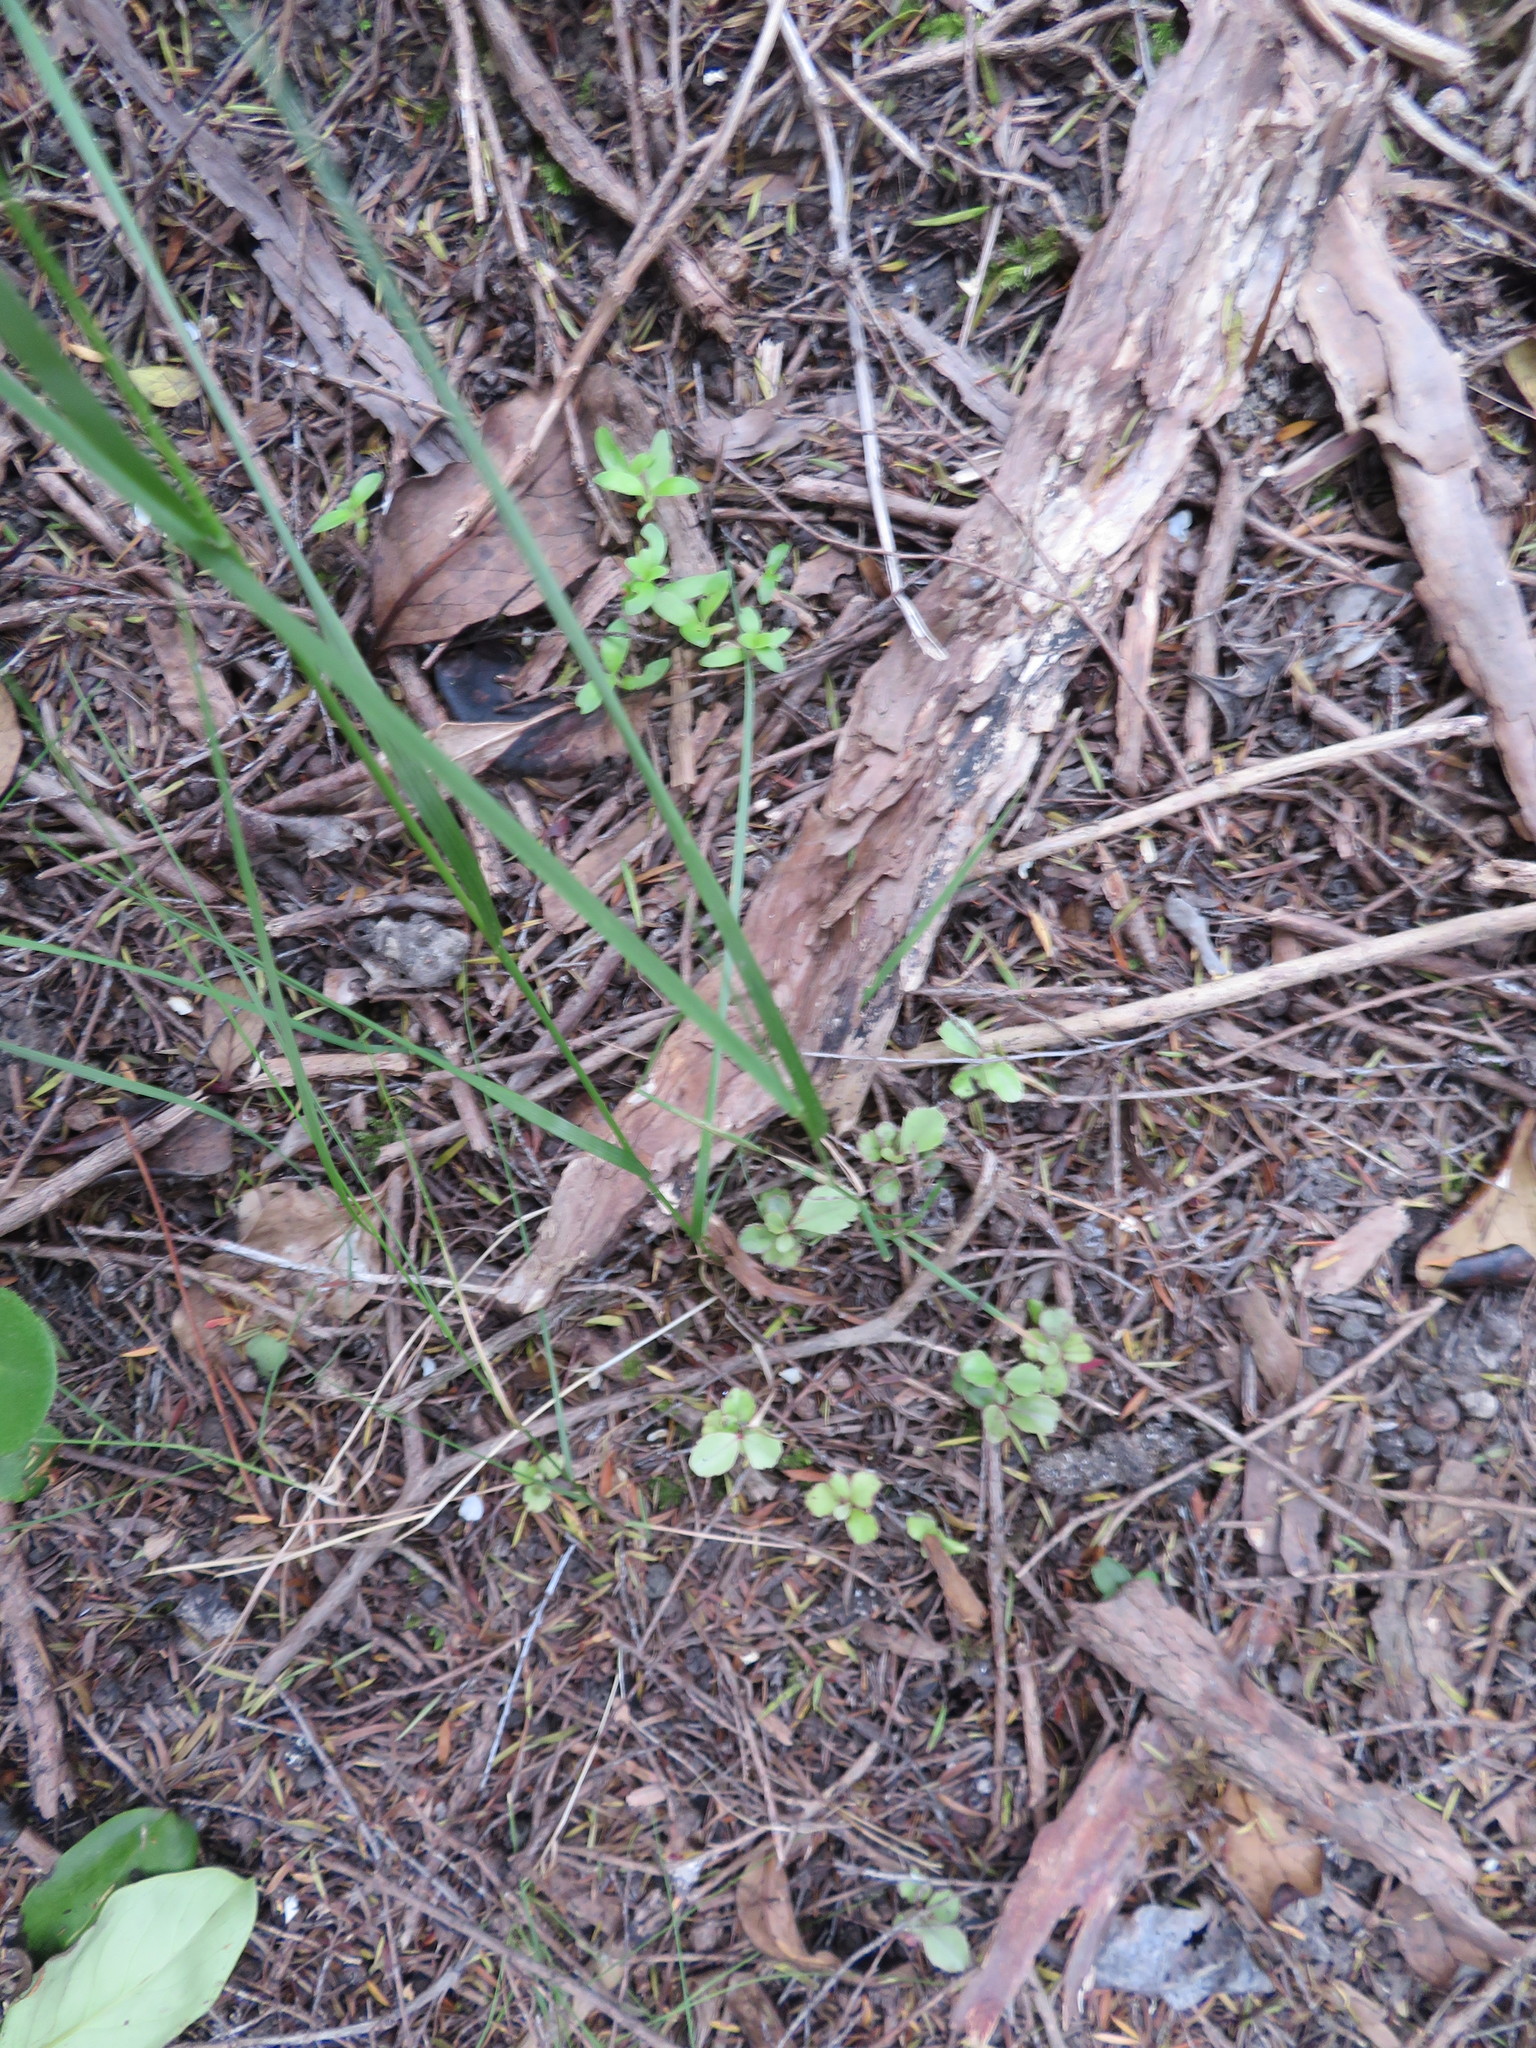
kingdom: Plantae
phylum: Tracheophyta
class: Magnoliopsida
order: Ericales
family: Primulaceae
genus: Myrsine
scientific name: Myrsine australis
